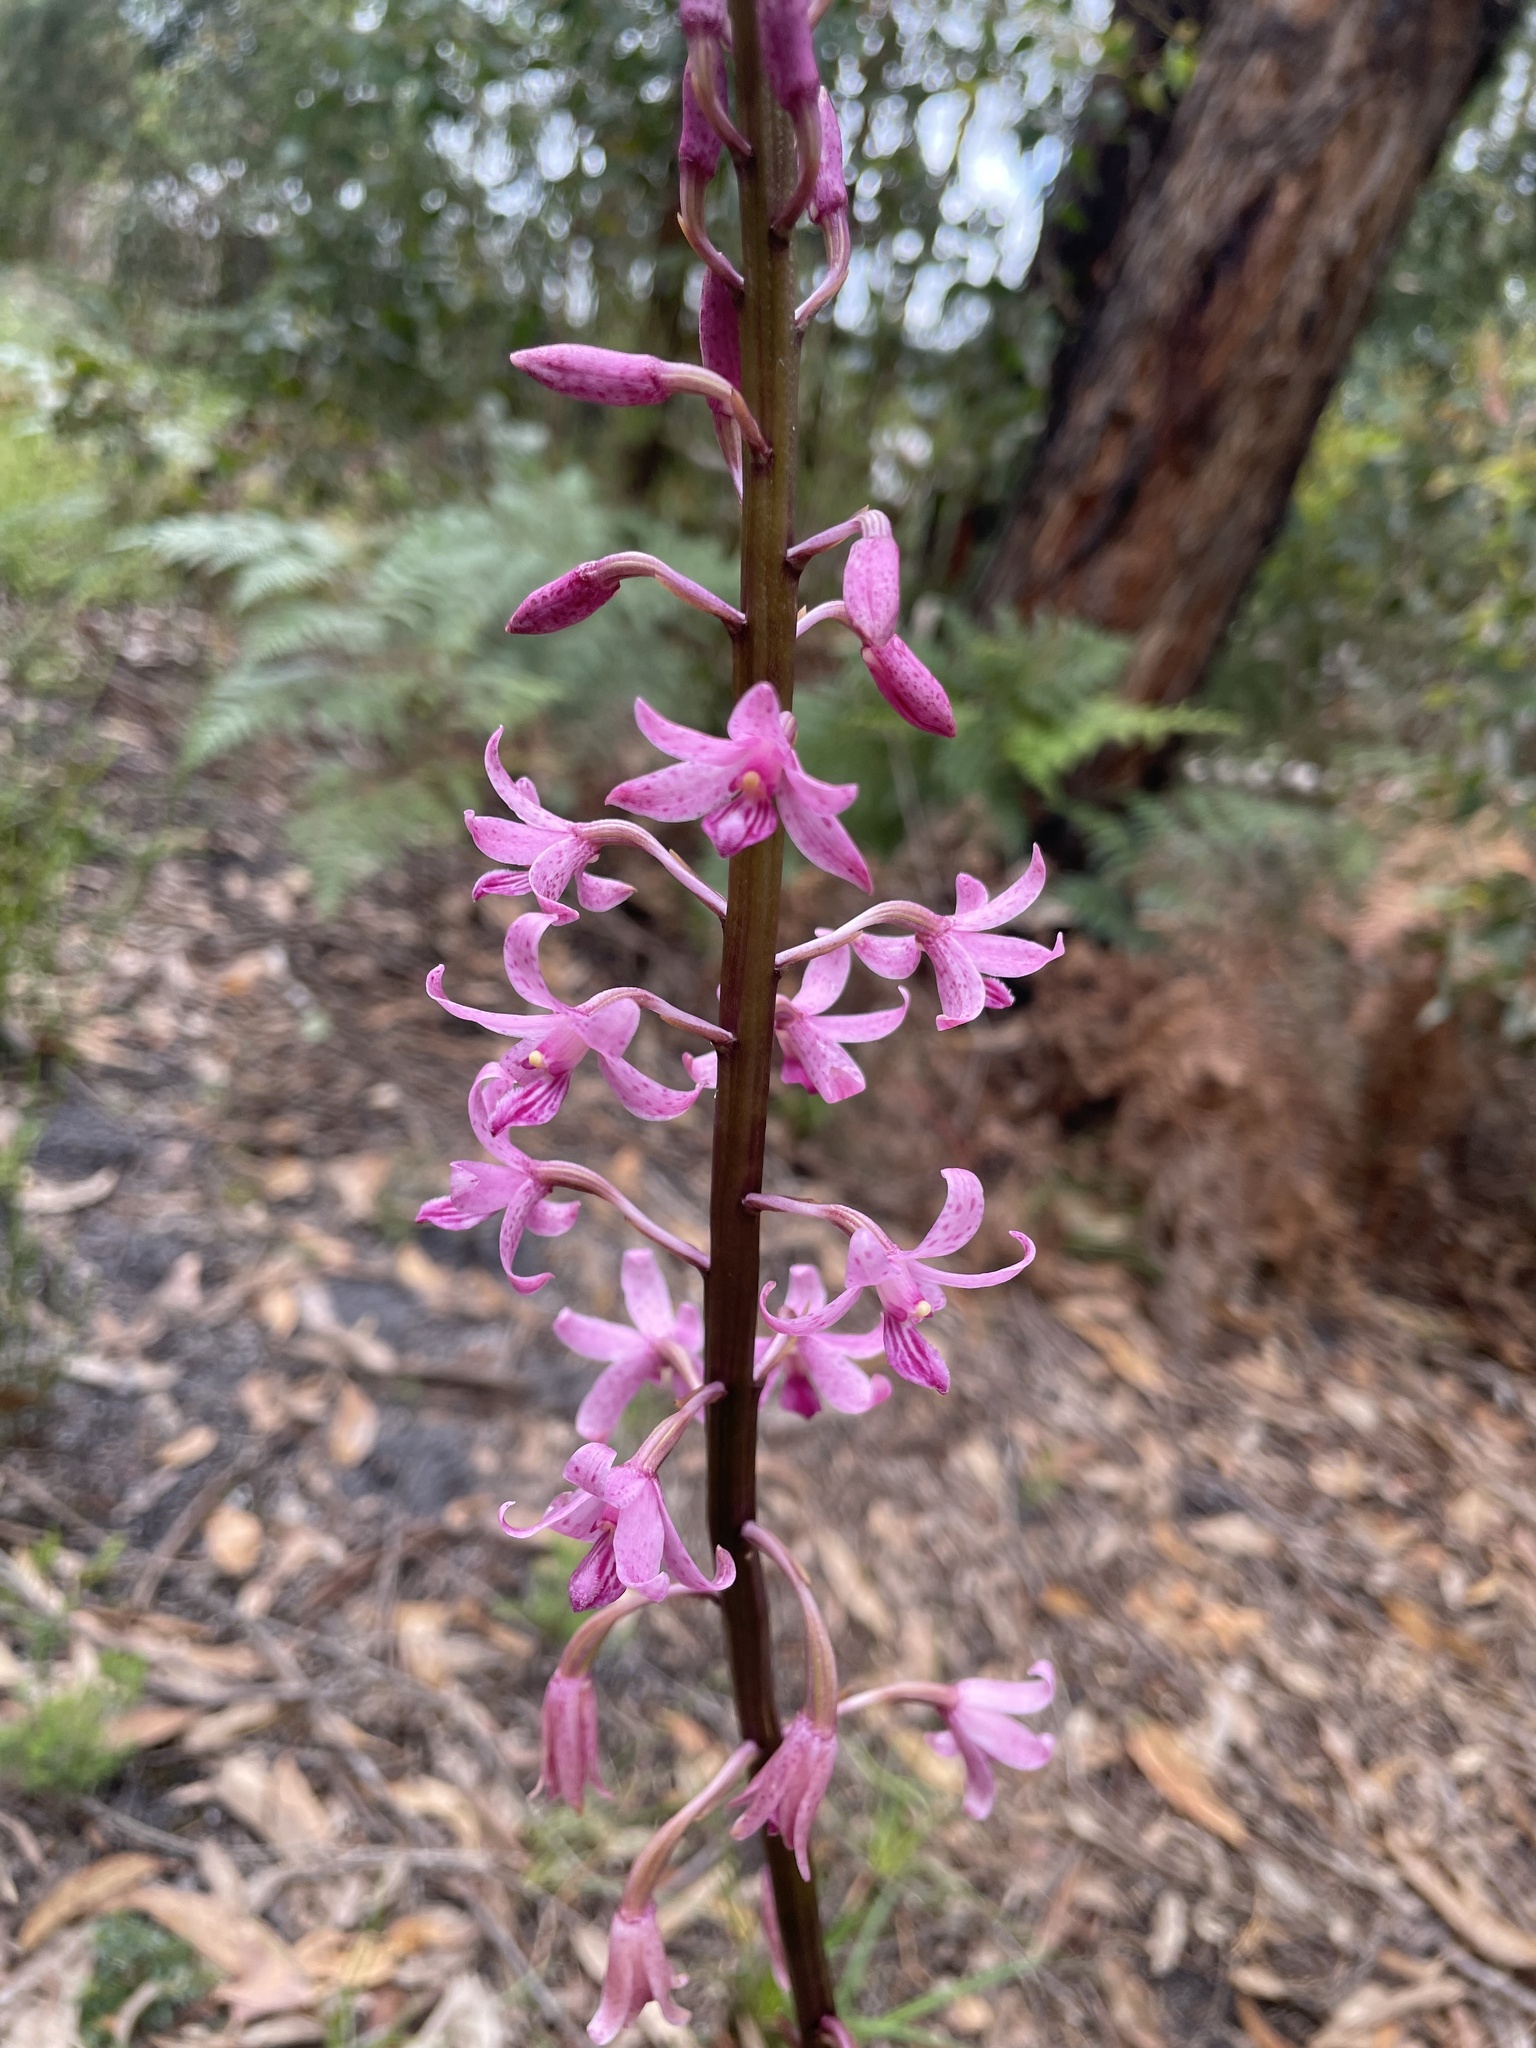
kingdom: Plantae
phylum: Tracheophyta
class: Liliopsida
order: Asparagales
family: Orchidaceae
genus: Dipodium
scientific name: Dipodium roseum
